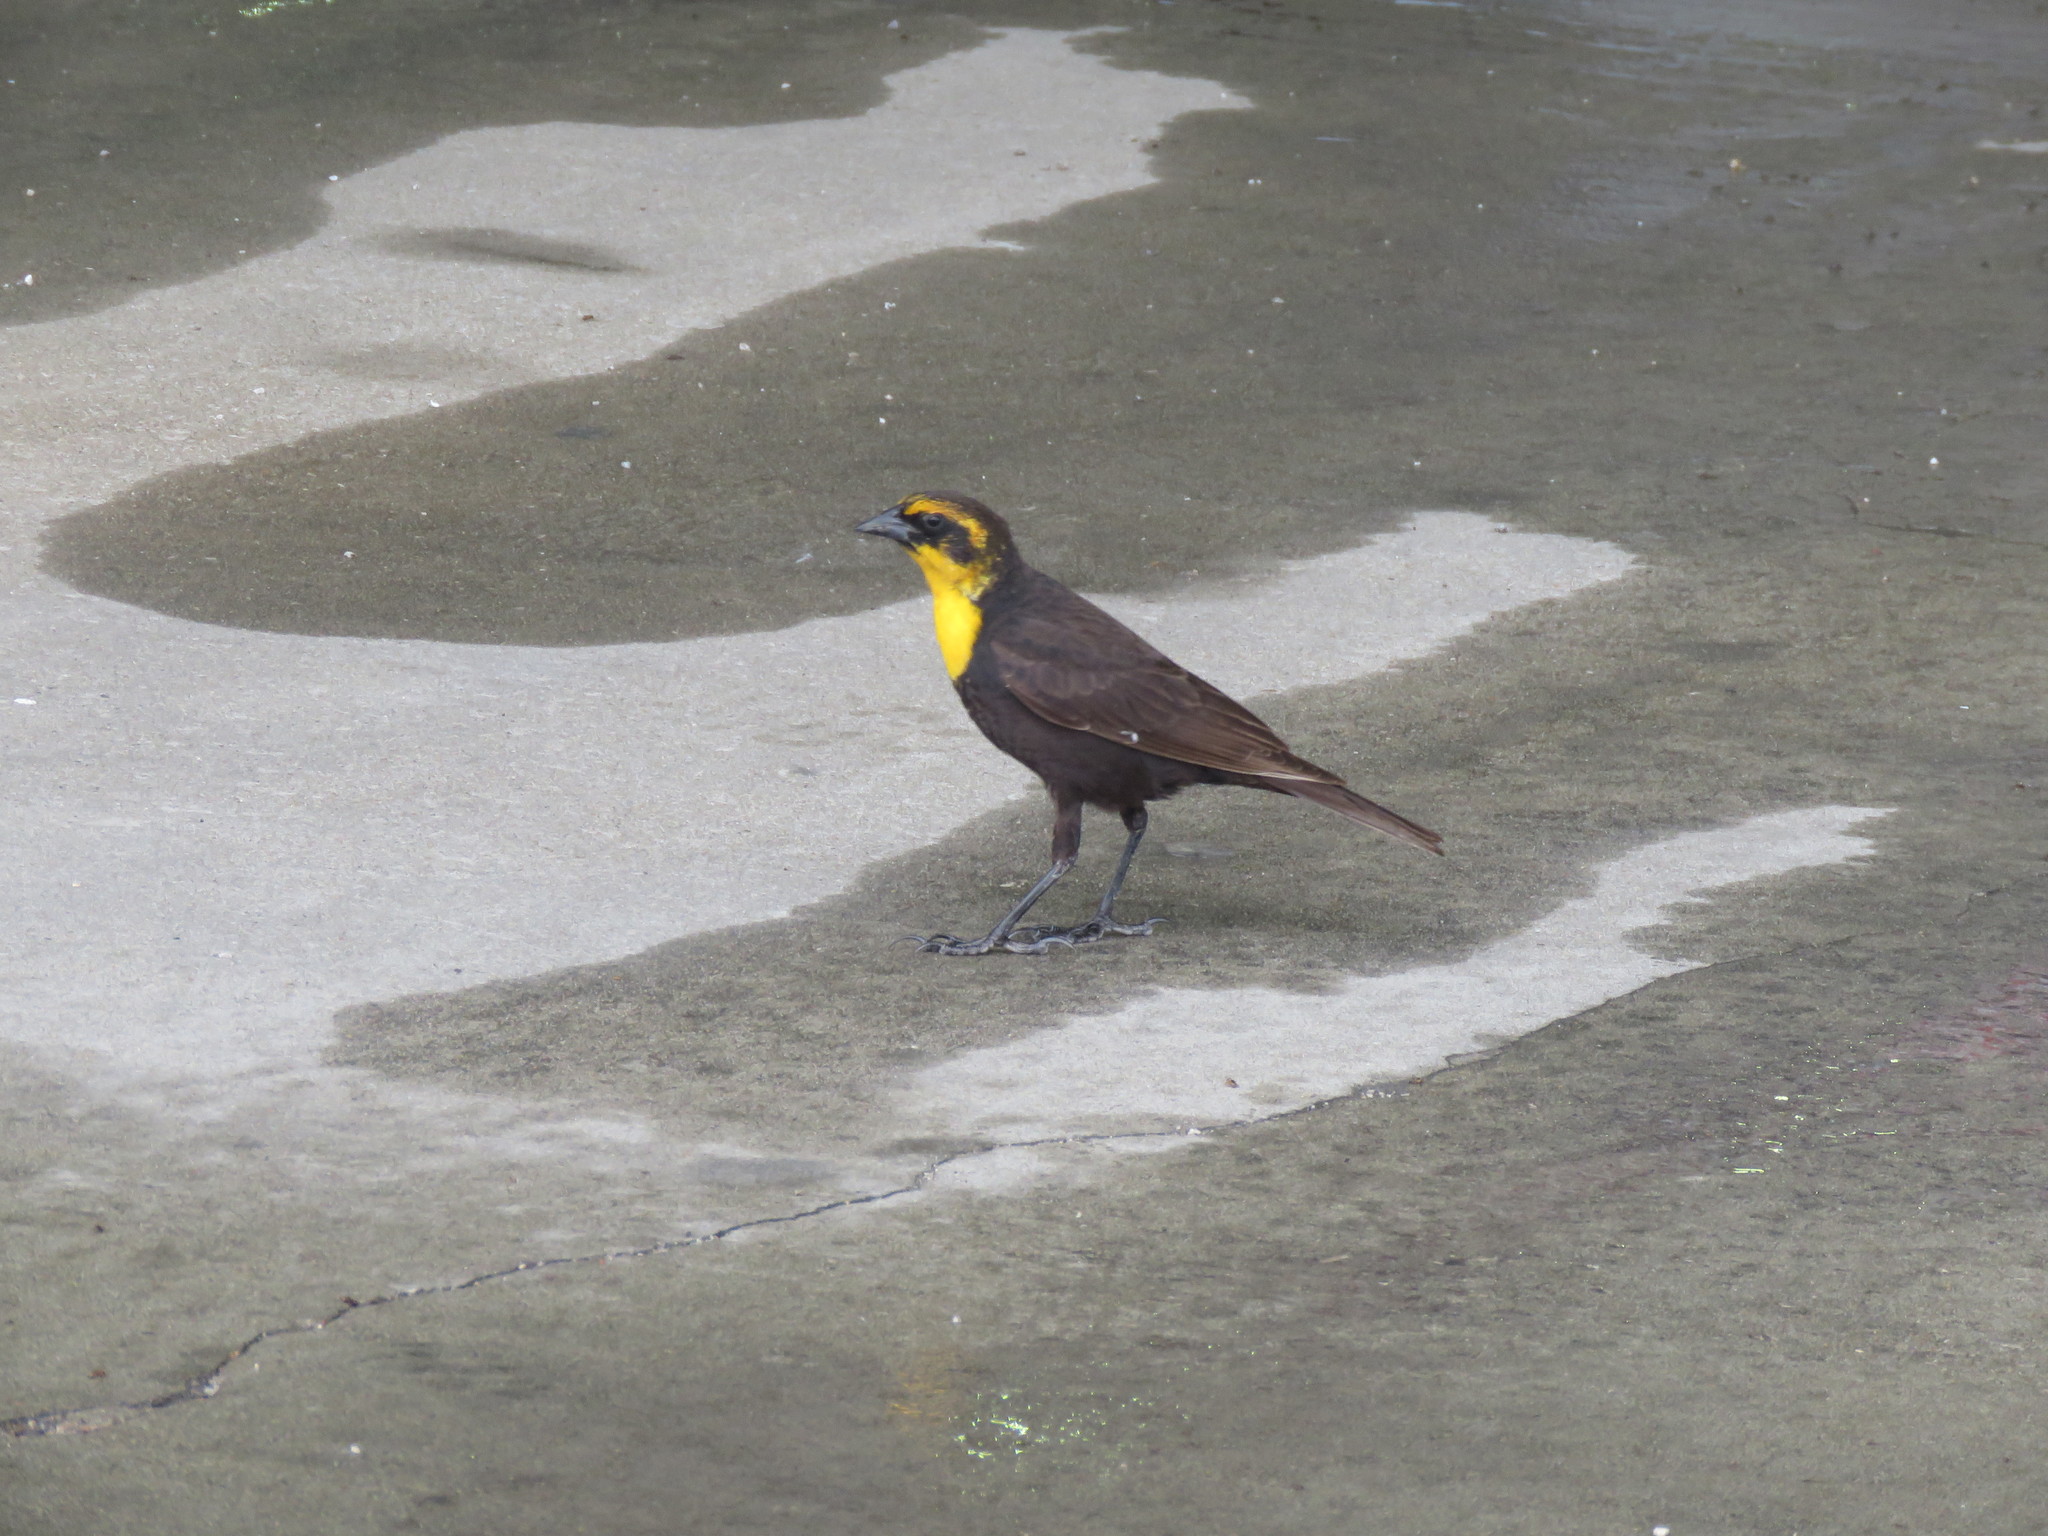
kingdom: Animalia
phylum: Chordata
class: Aves
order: Passeriformes
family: Icteridae
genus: Xanthocephalus
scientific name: Xanthocephalus xanthocephalus
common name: Yellow-headed blackbird
